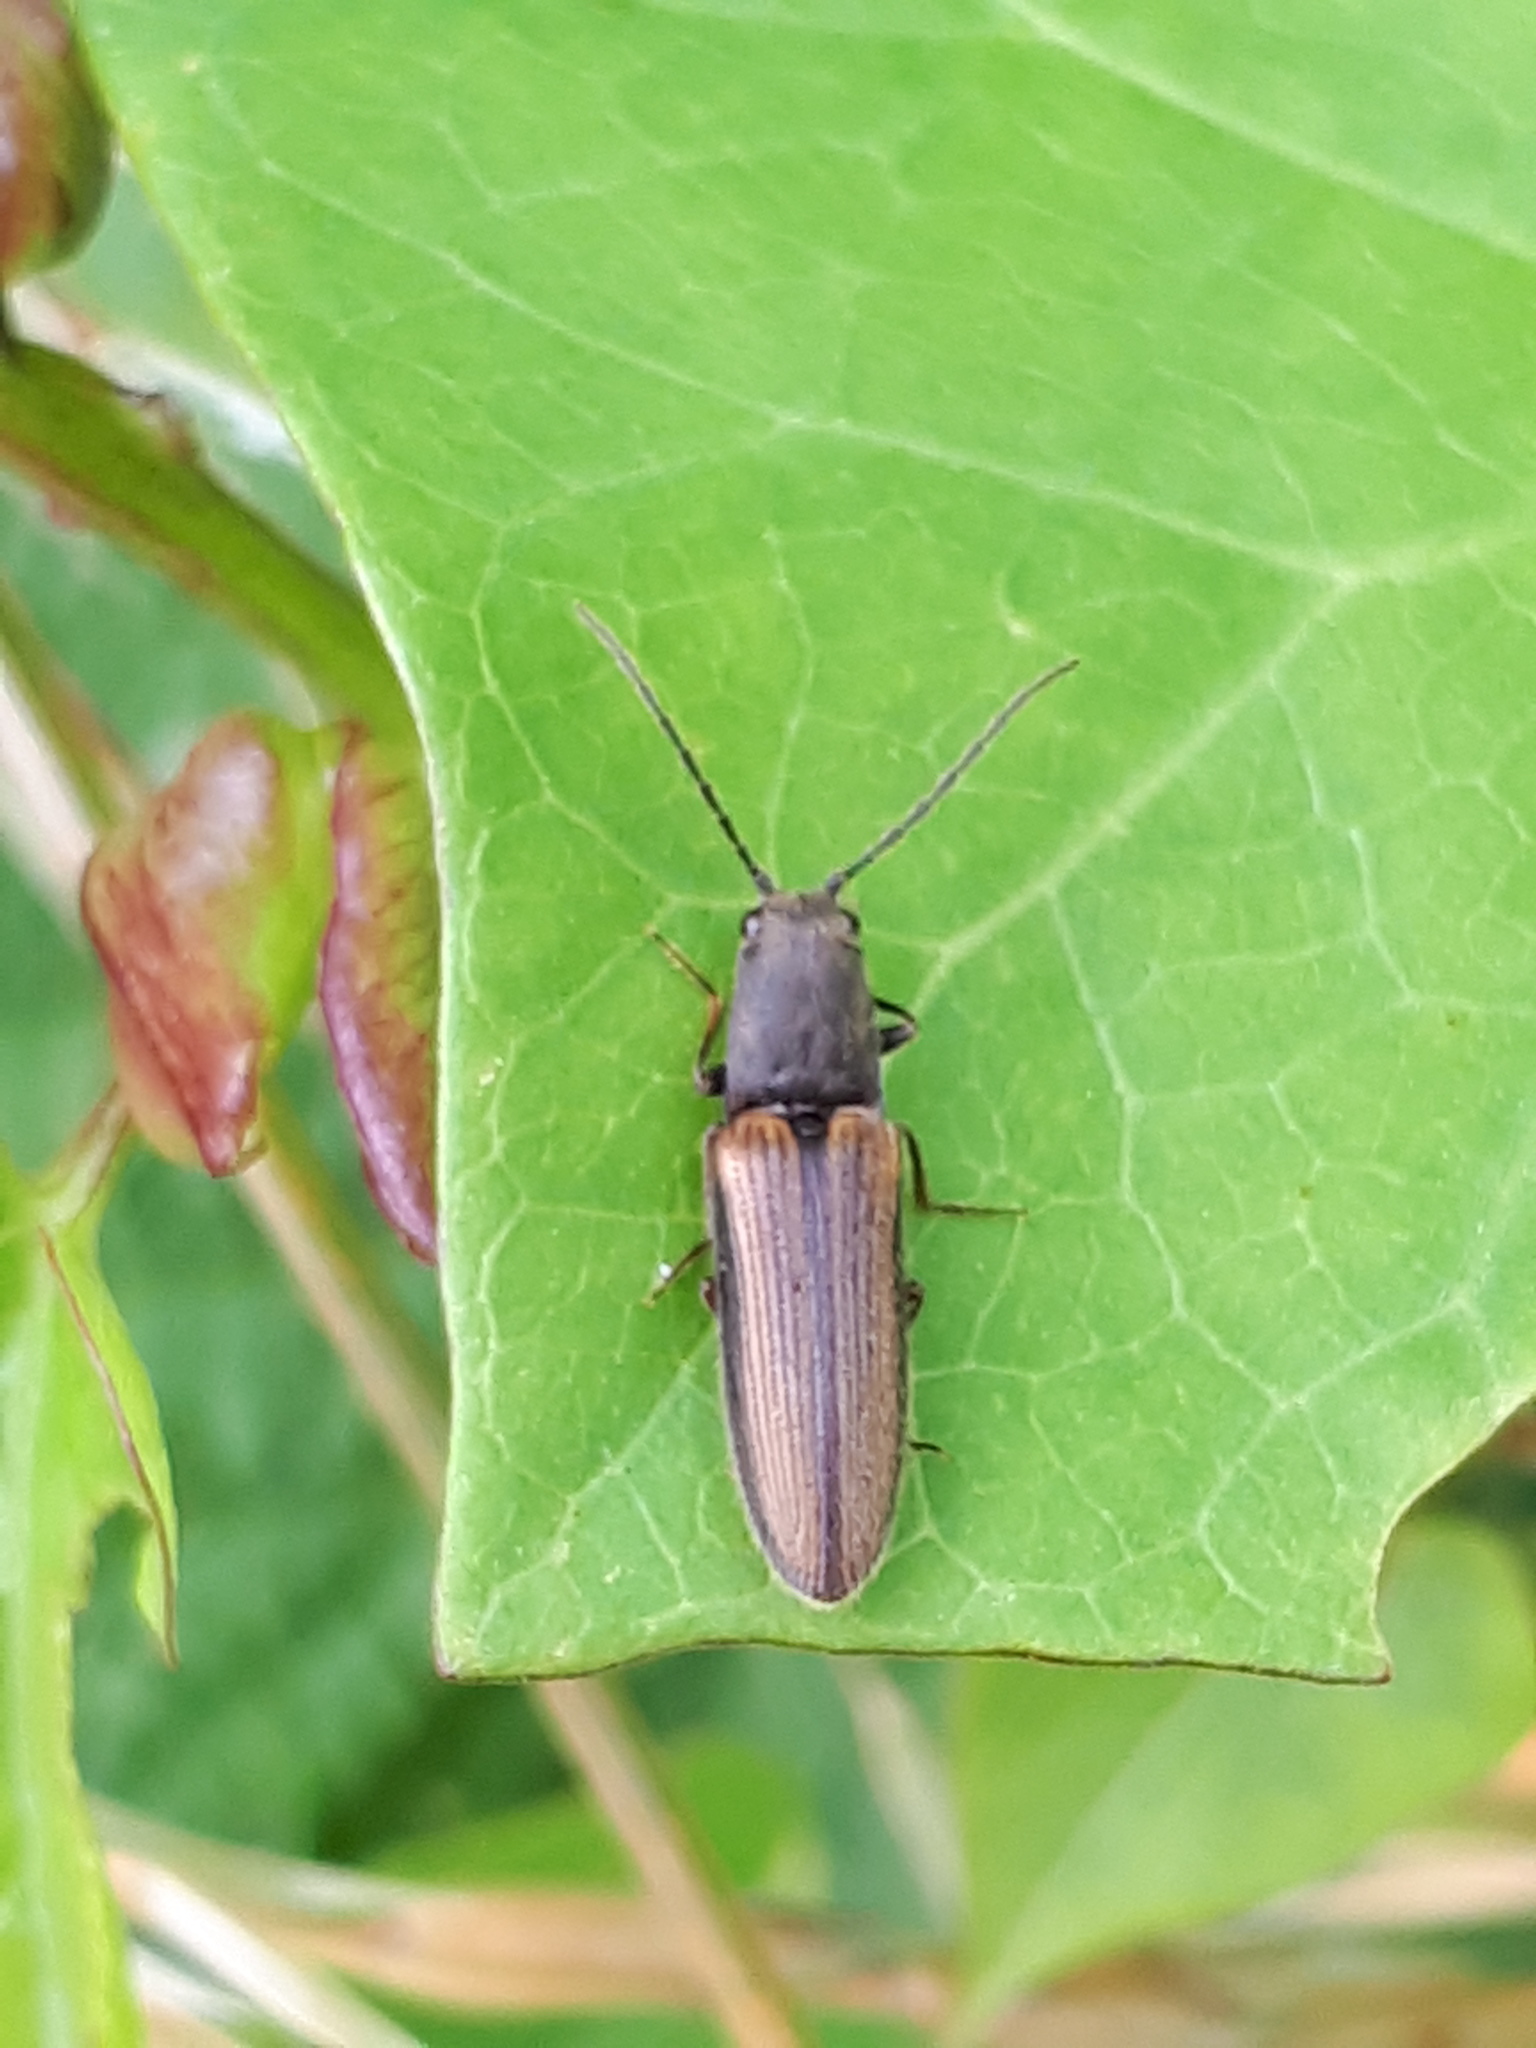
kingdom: Animalia
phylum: Arthropoda
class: Insecta
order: Coleoptera
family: Elateridae
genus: Athous
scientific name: Athous bicolor
